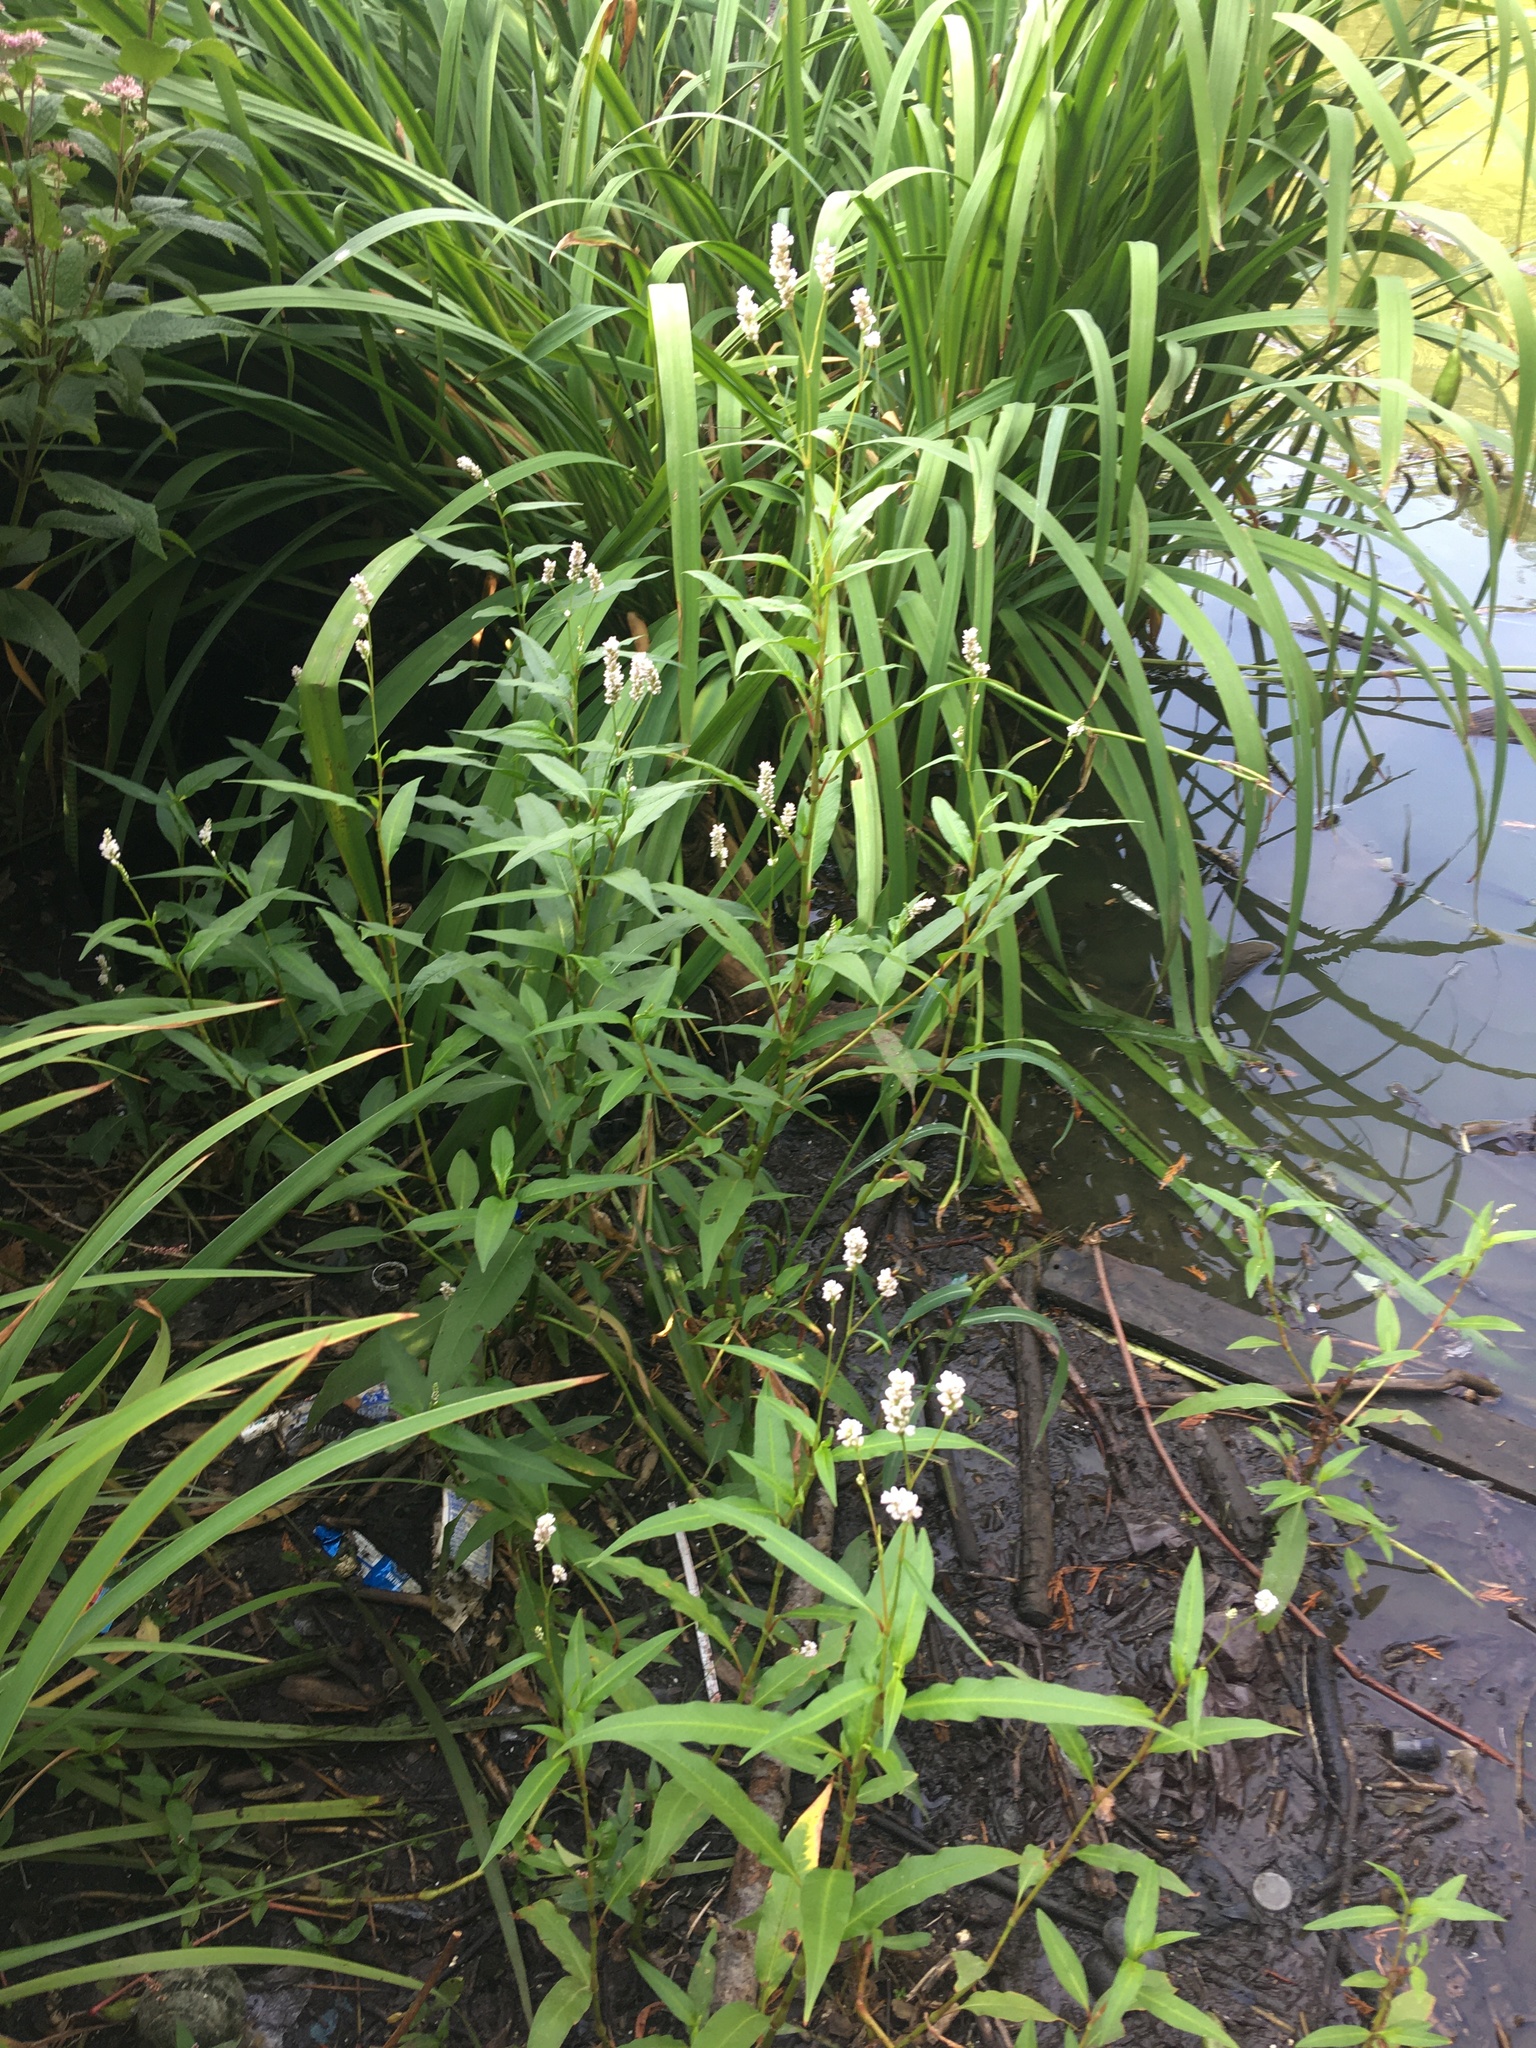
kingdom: Plantae
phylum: Tracheophyta
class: Magnoliopsida
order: Caryophyllales
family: Polygonaceae
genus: Persicaria
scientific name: Persicaria pensylvanica
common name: Pinkweed
